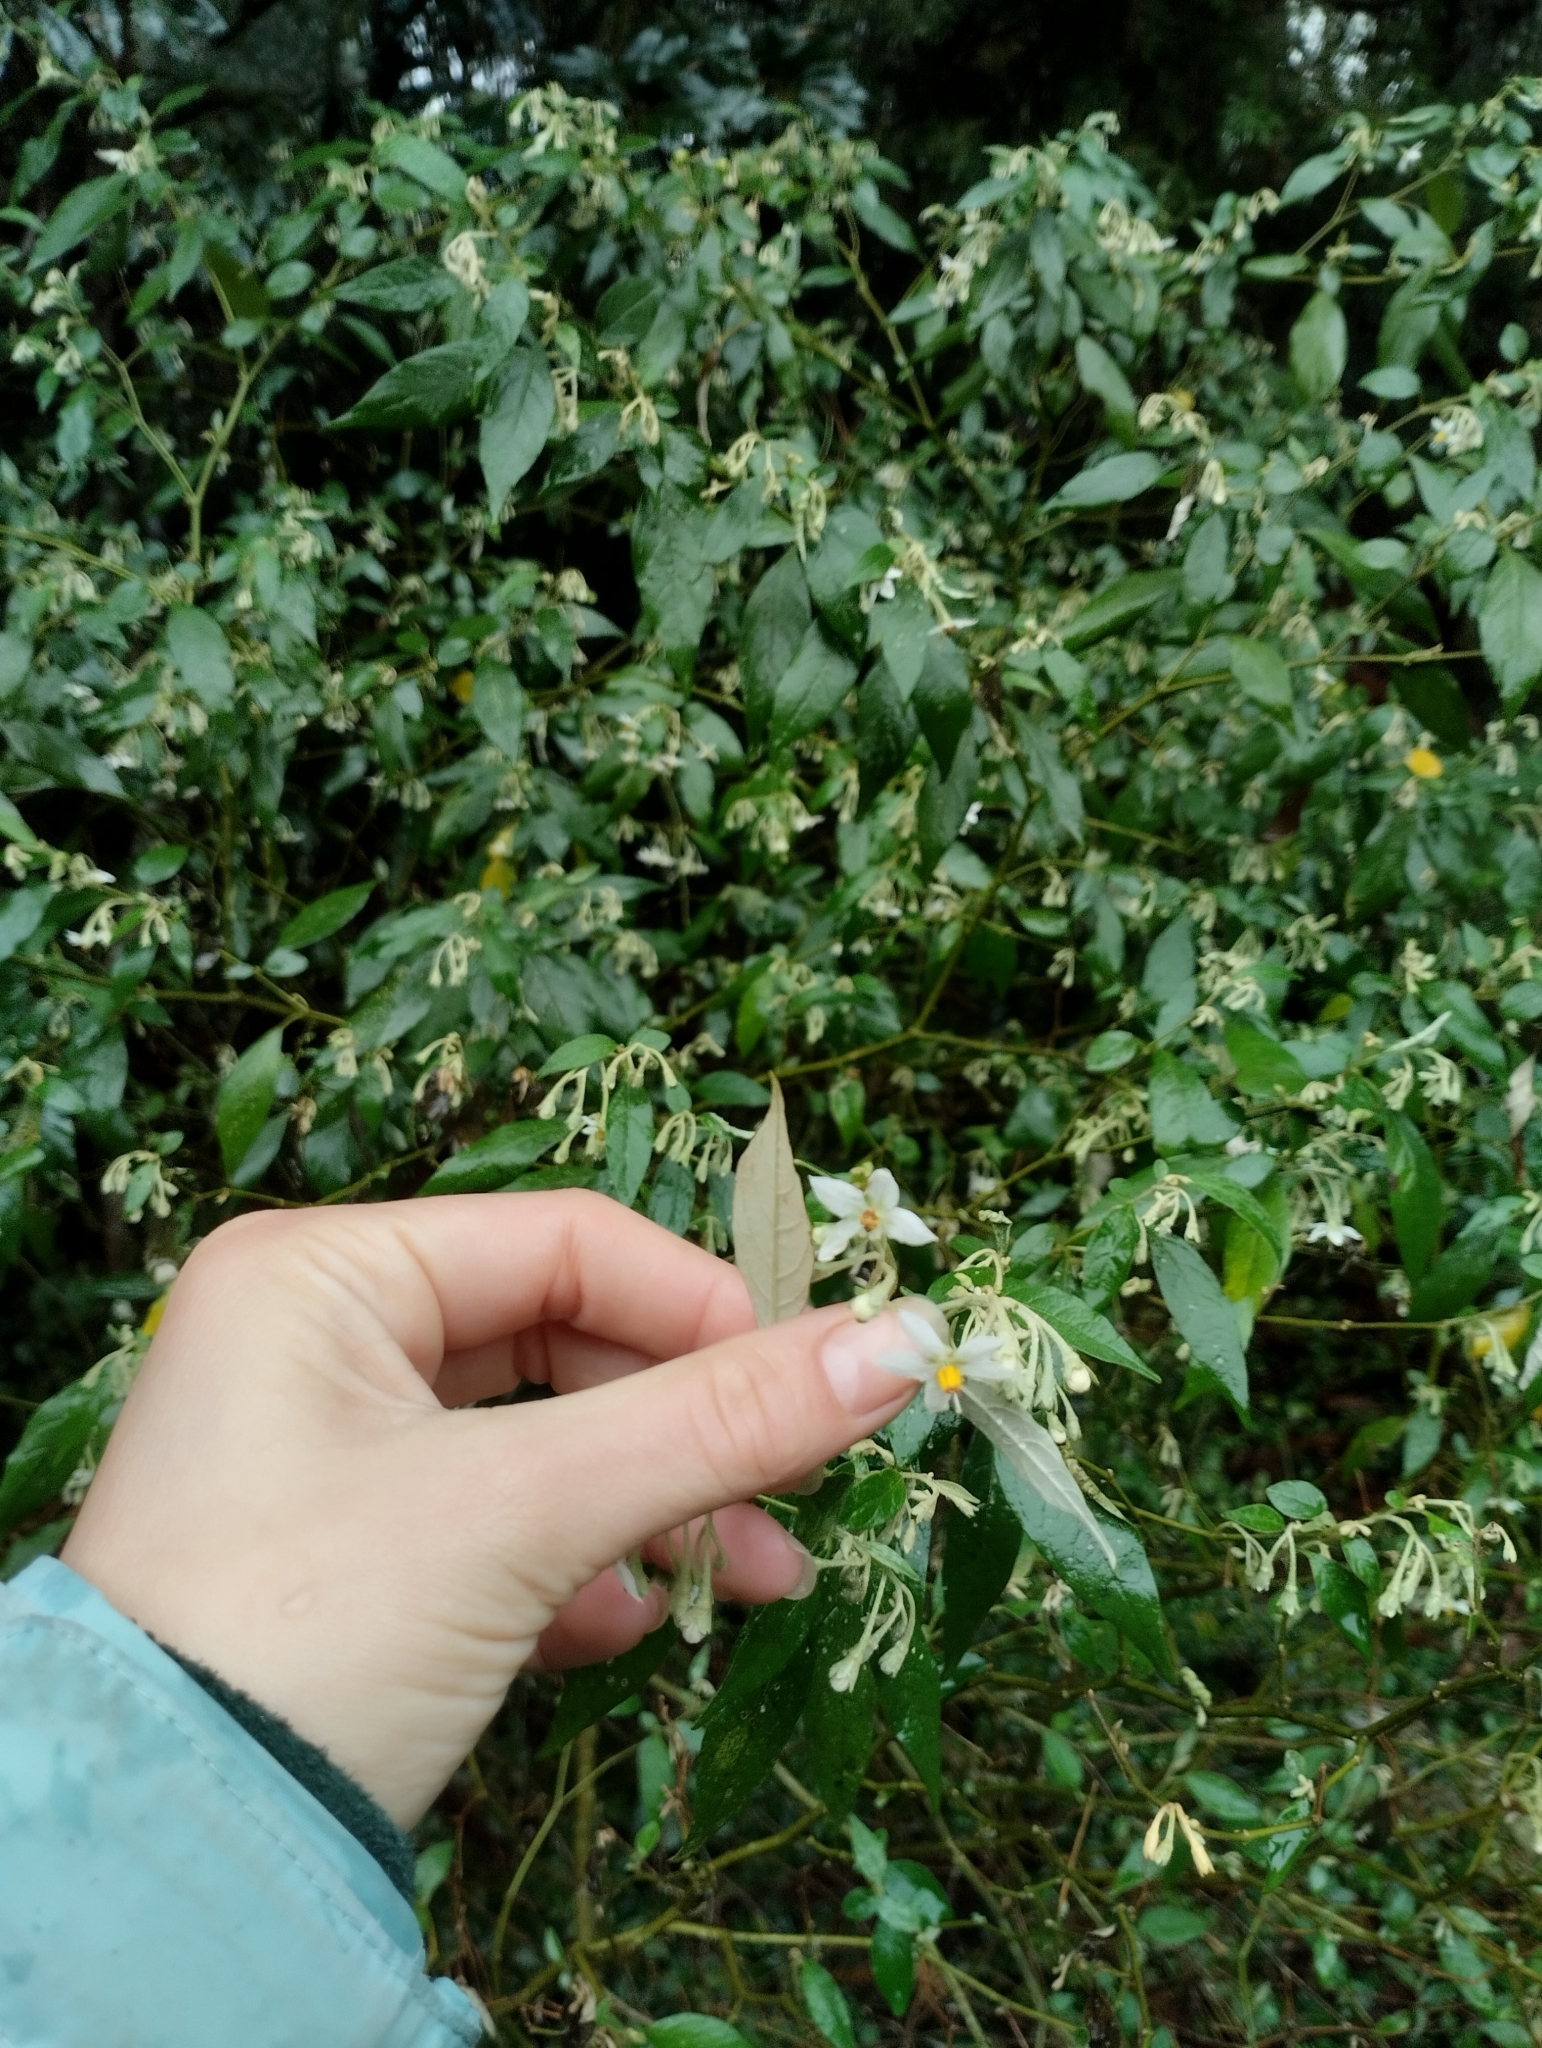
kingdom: Plantae
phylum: Tracheophyta
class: Magnoliopsida
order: Solanales
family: Solanaceae
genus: Solanum
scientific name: Solanum paranense
